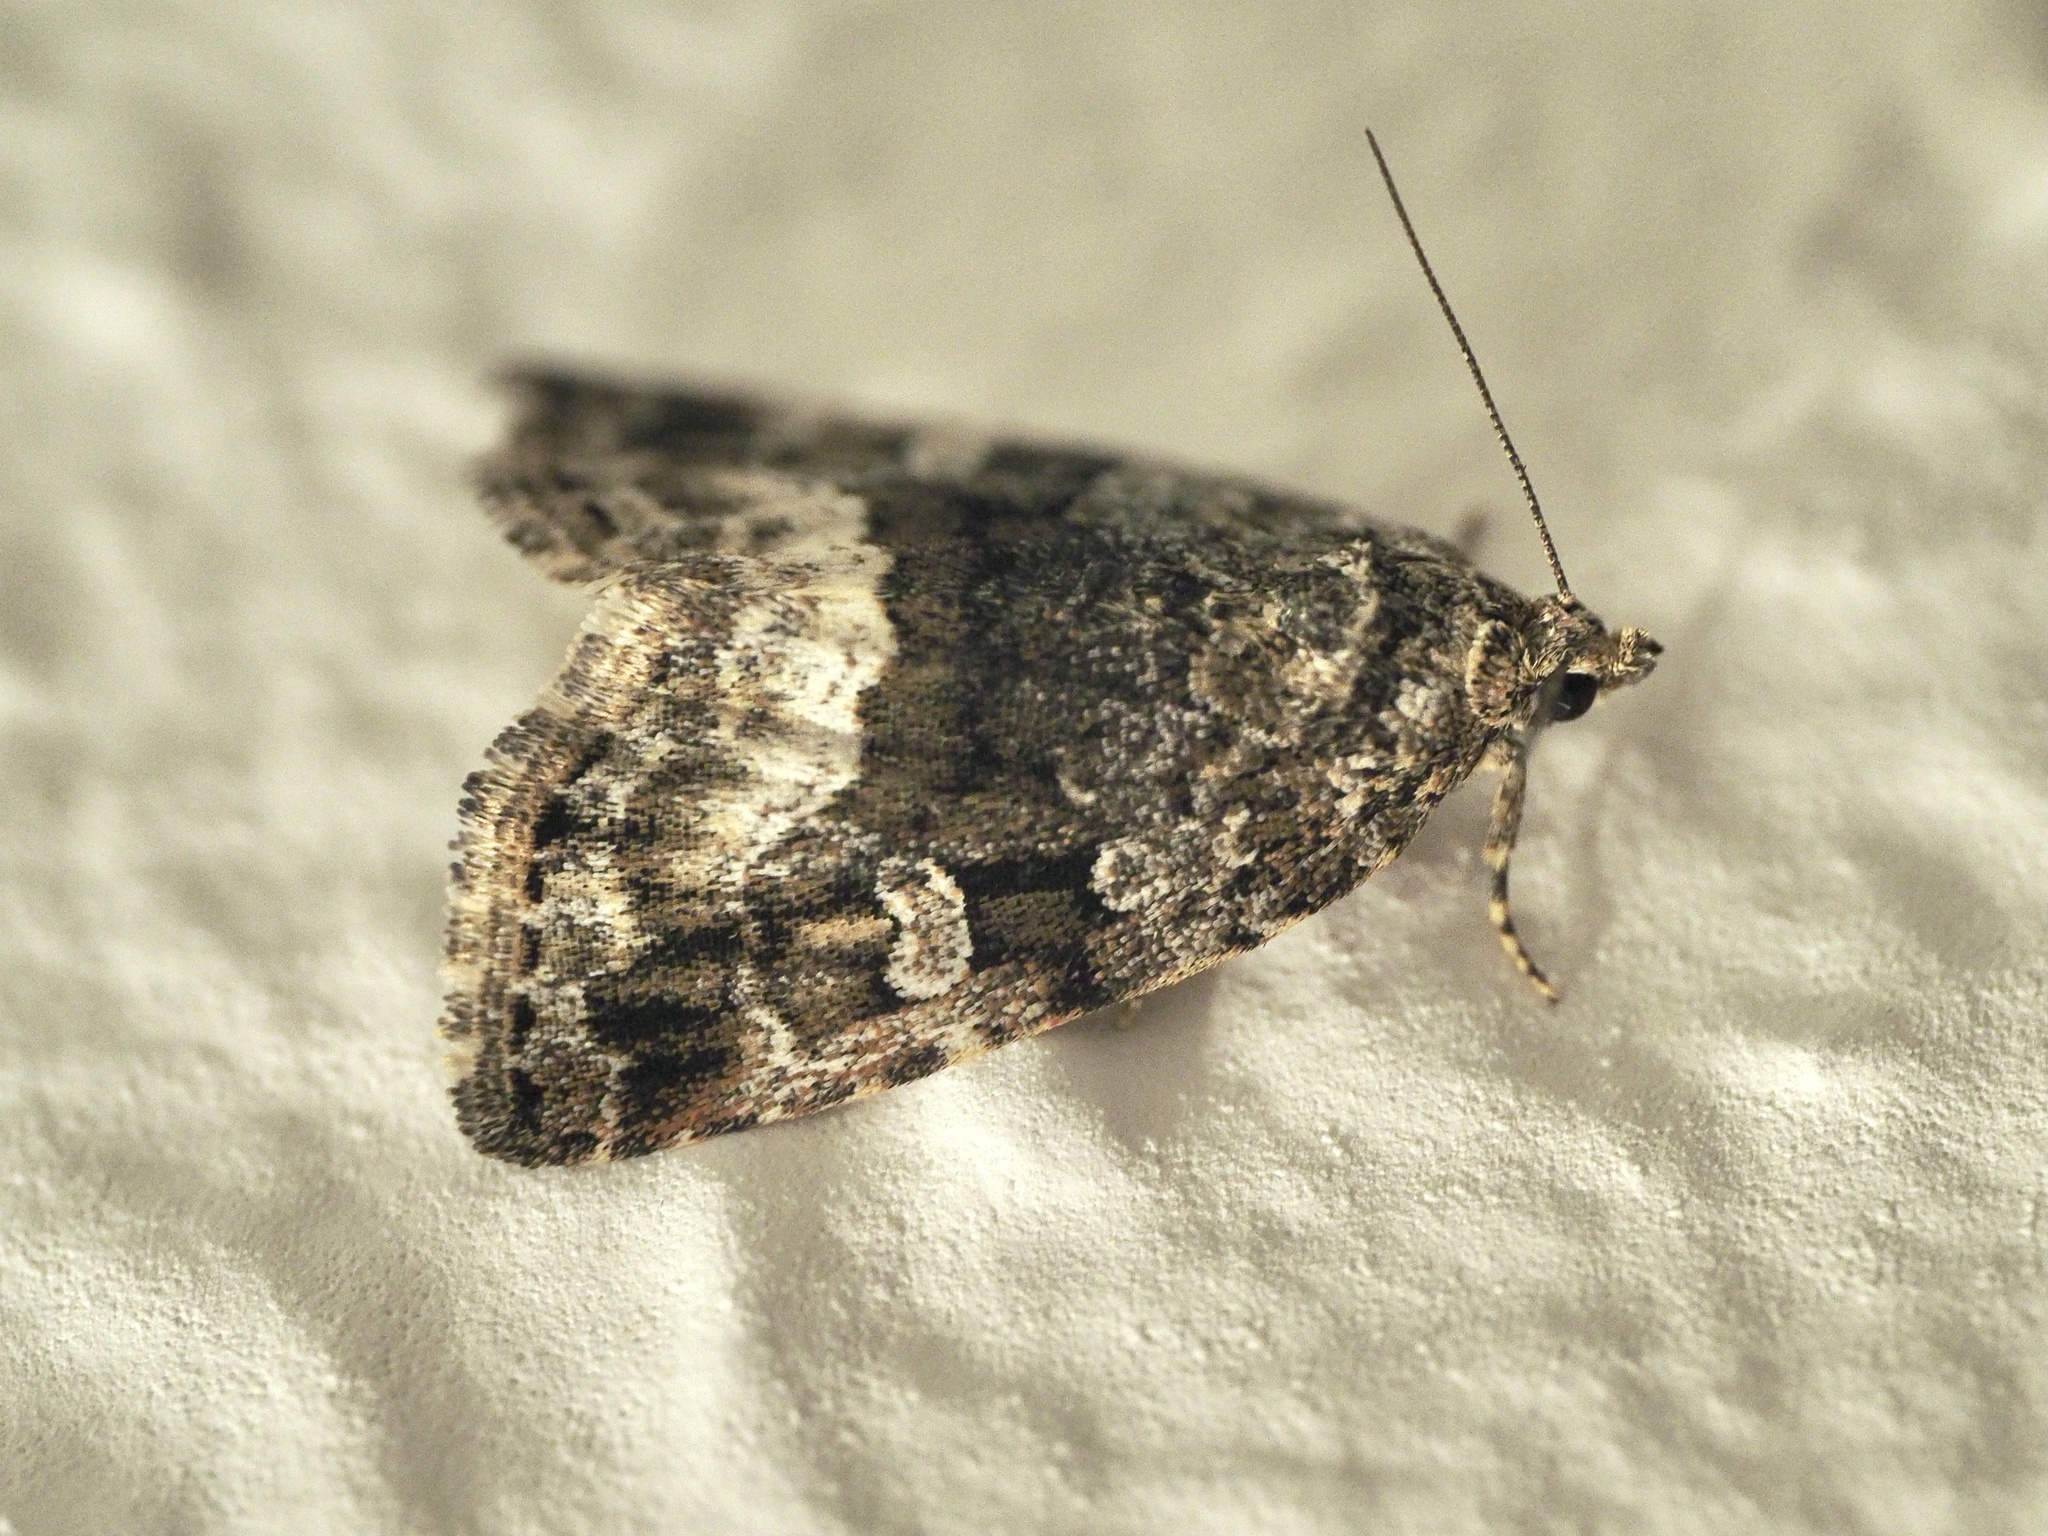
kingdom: Animalia
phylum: Arthropoda
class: Insecta
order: Lepidoptera
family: Noctuidae
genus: Deltote
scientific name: Deltote pygarga
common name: Marbled white spot
